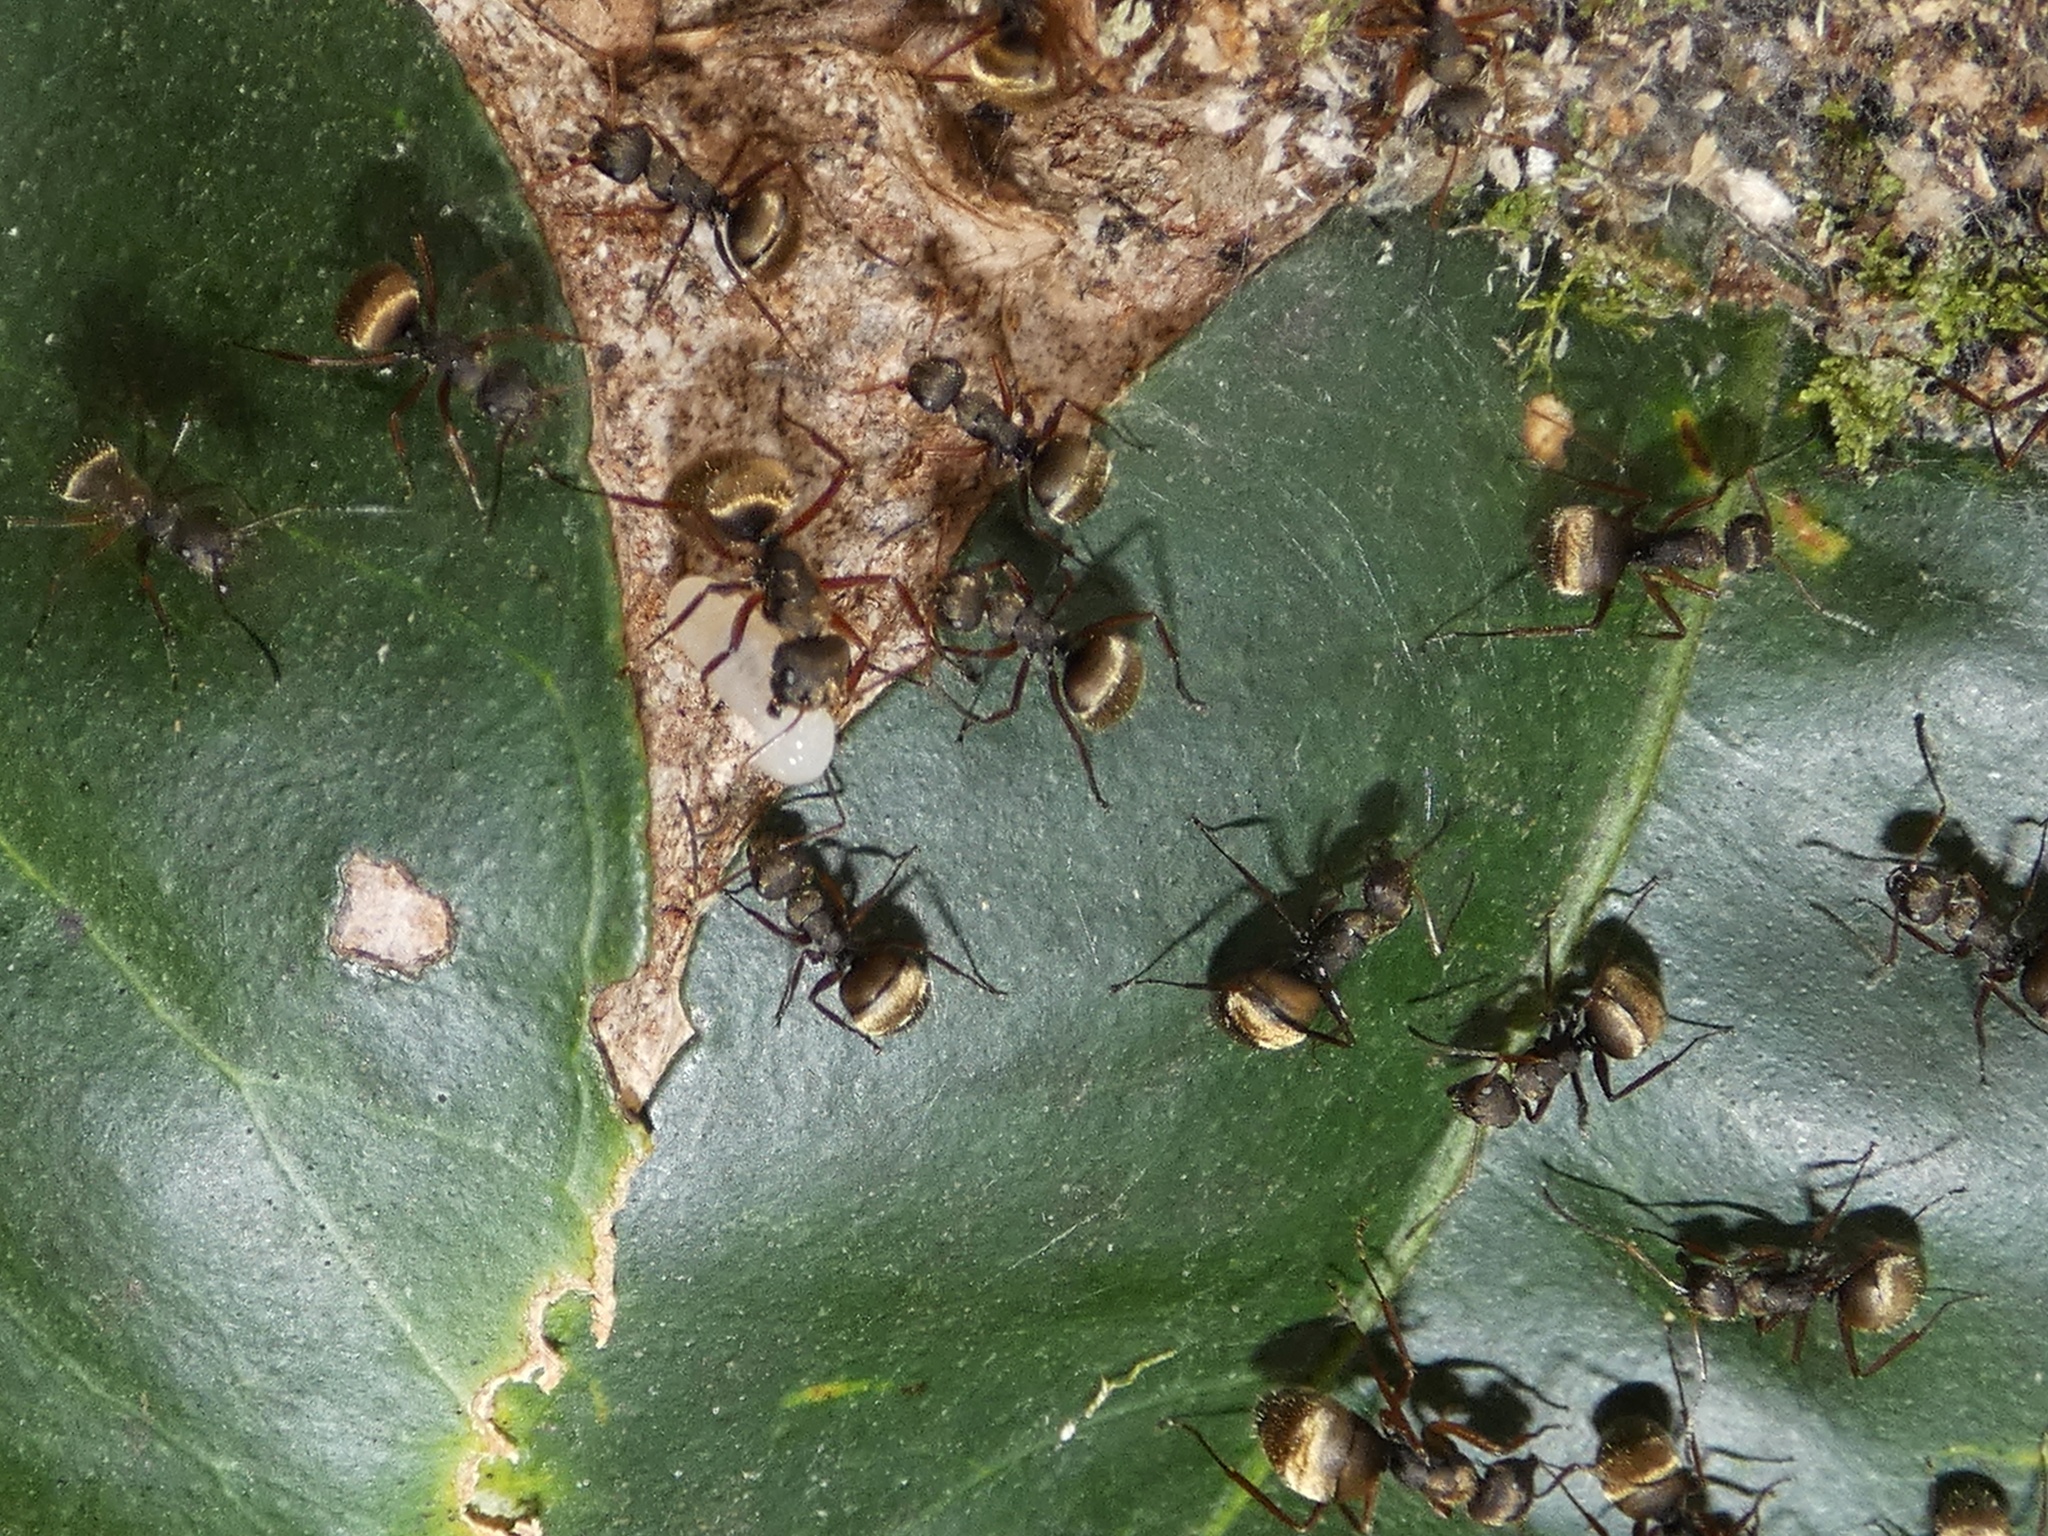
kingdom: Animalia
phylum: Arthropoda
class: Insecta
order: Hymenoptera
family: Formicidae
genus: Camponotus
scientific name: Camponotus textor
